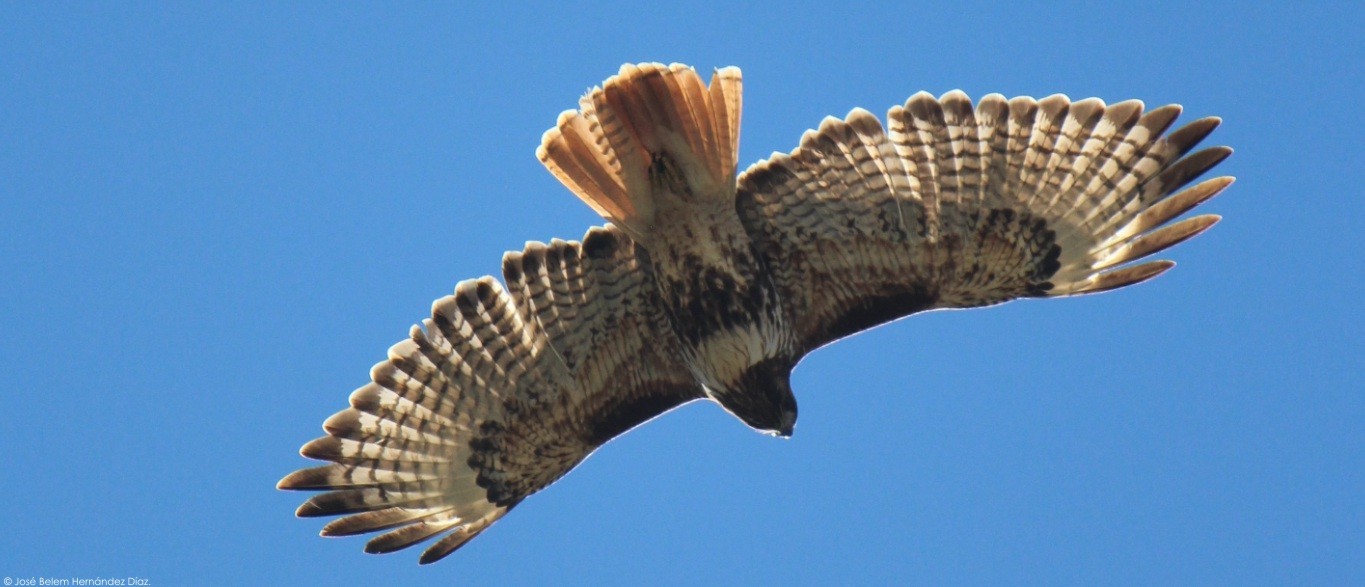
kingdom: Animalia
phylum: Chordata
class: Aves
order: Accipitriformes
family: Accipitridae
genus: Buteo
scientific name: Buteo jamaicensis
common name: Red-tailed hawk
